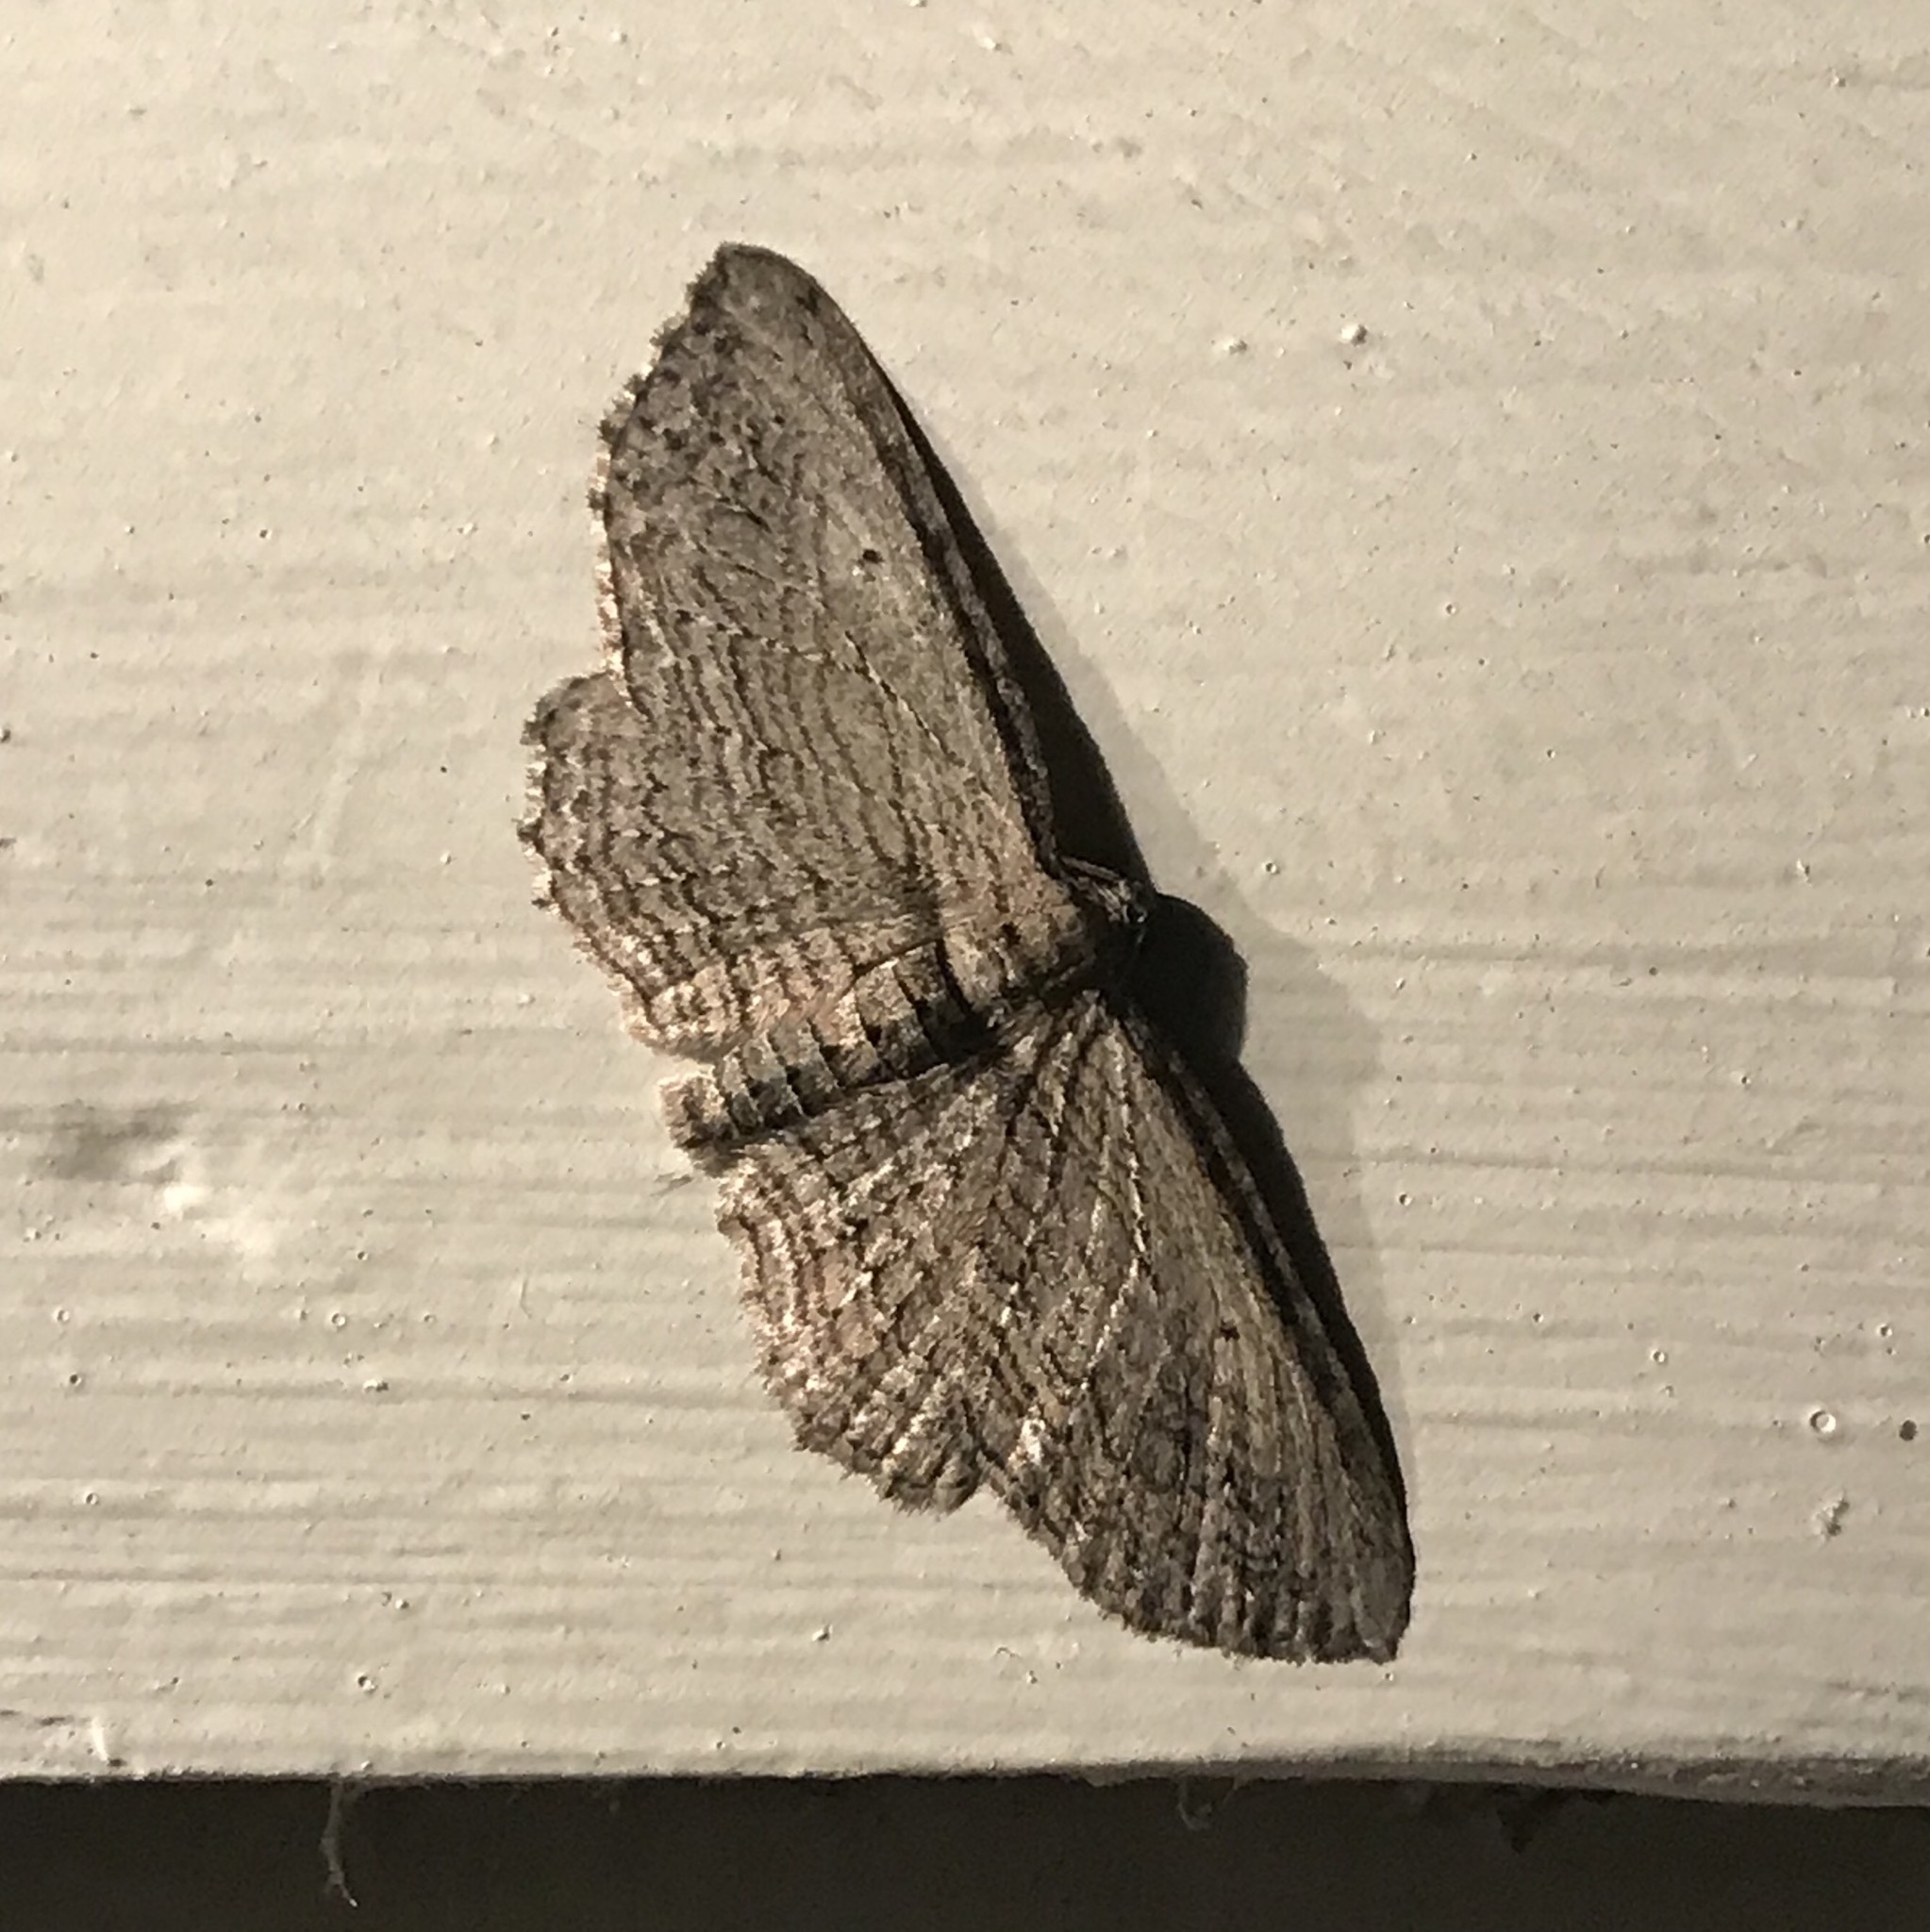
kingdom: Animalia
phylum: Arthropoda
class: Insecta
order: Lepidoptera
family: Geometridae
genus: Horisme
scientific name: Horisme intestinata
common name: Brown bark carpet
